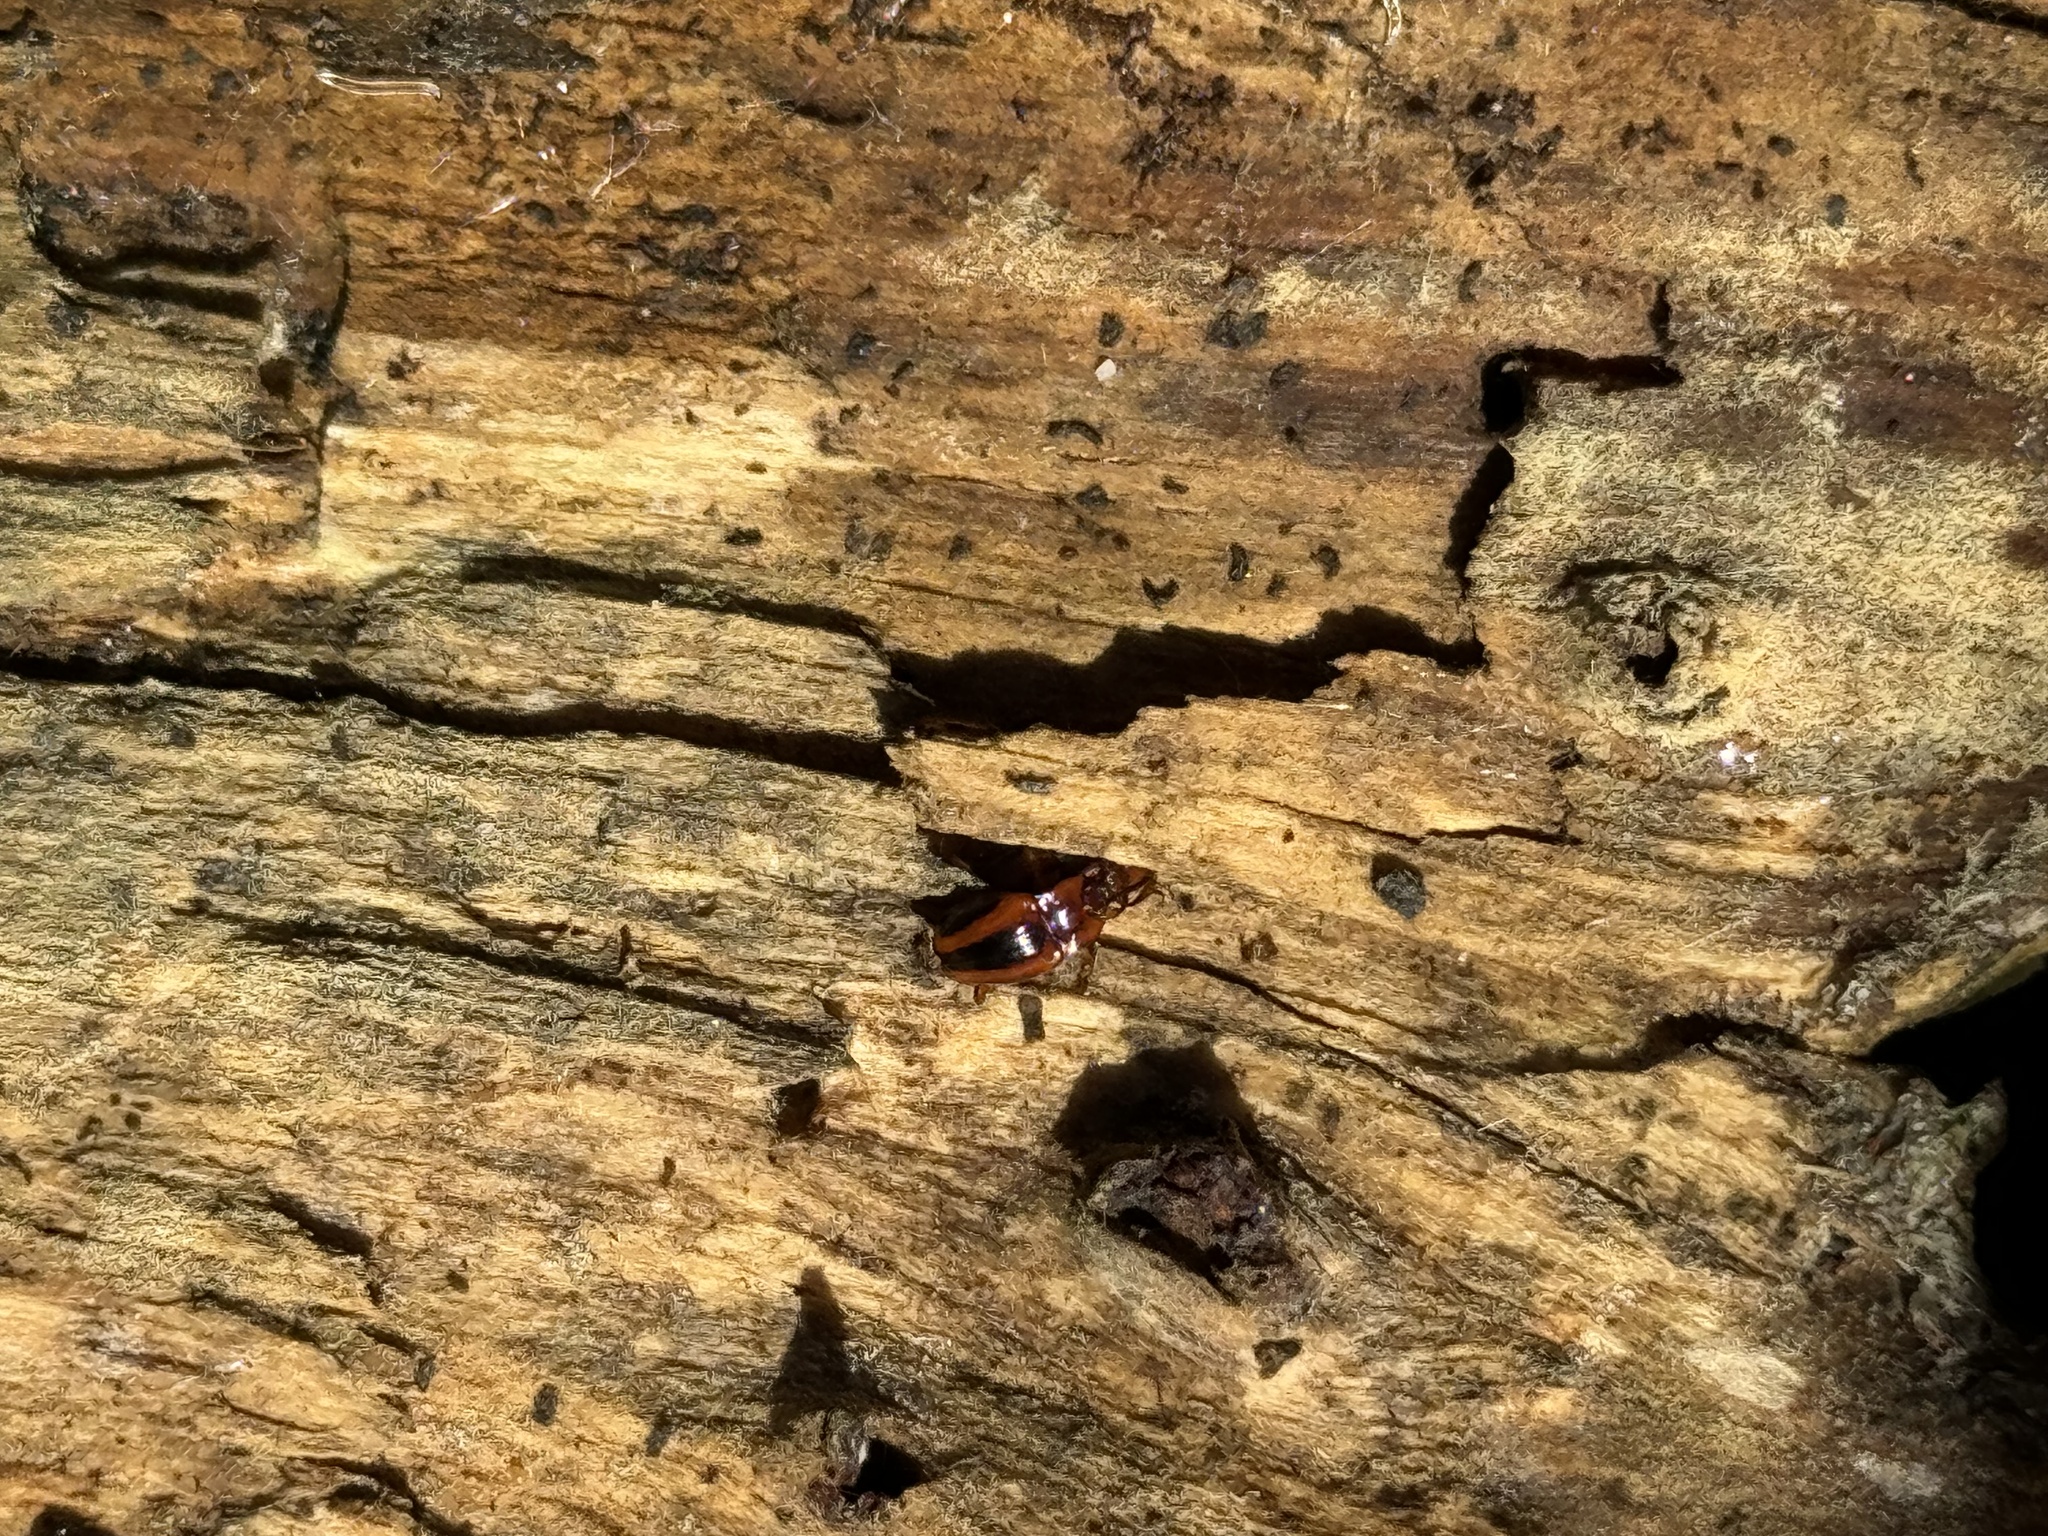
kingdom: Animalia
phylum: Arthropoda
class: Insecta
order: Coleoptera
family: Endomychidae
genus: Aphorista
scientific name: Aphorista vittata
